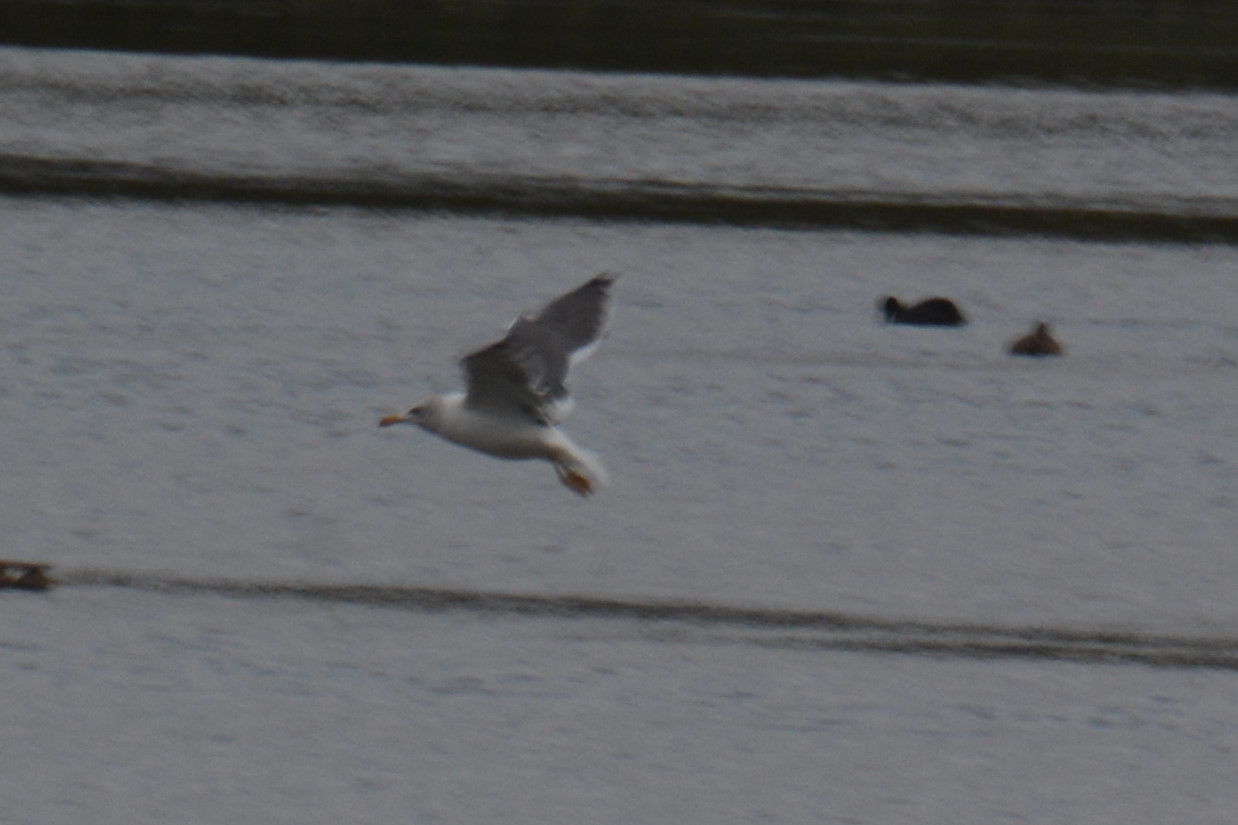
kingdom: Animalia
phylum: Chordata
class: Aves
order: Charadriiformes
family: Laridae
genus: Larus
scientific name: Larus fuscus
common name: Lesser black-backed gull
